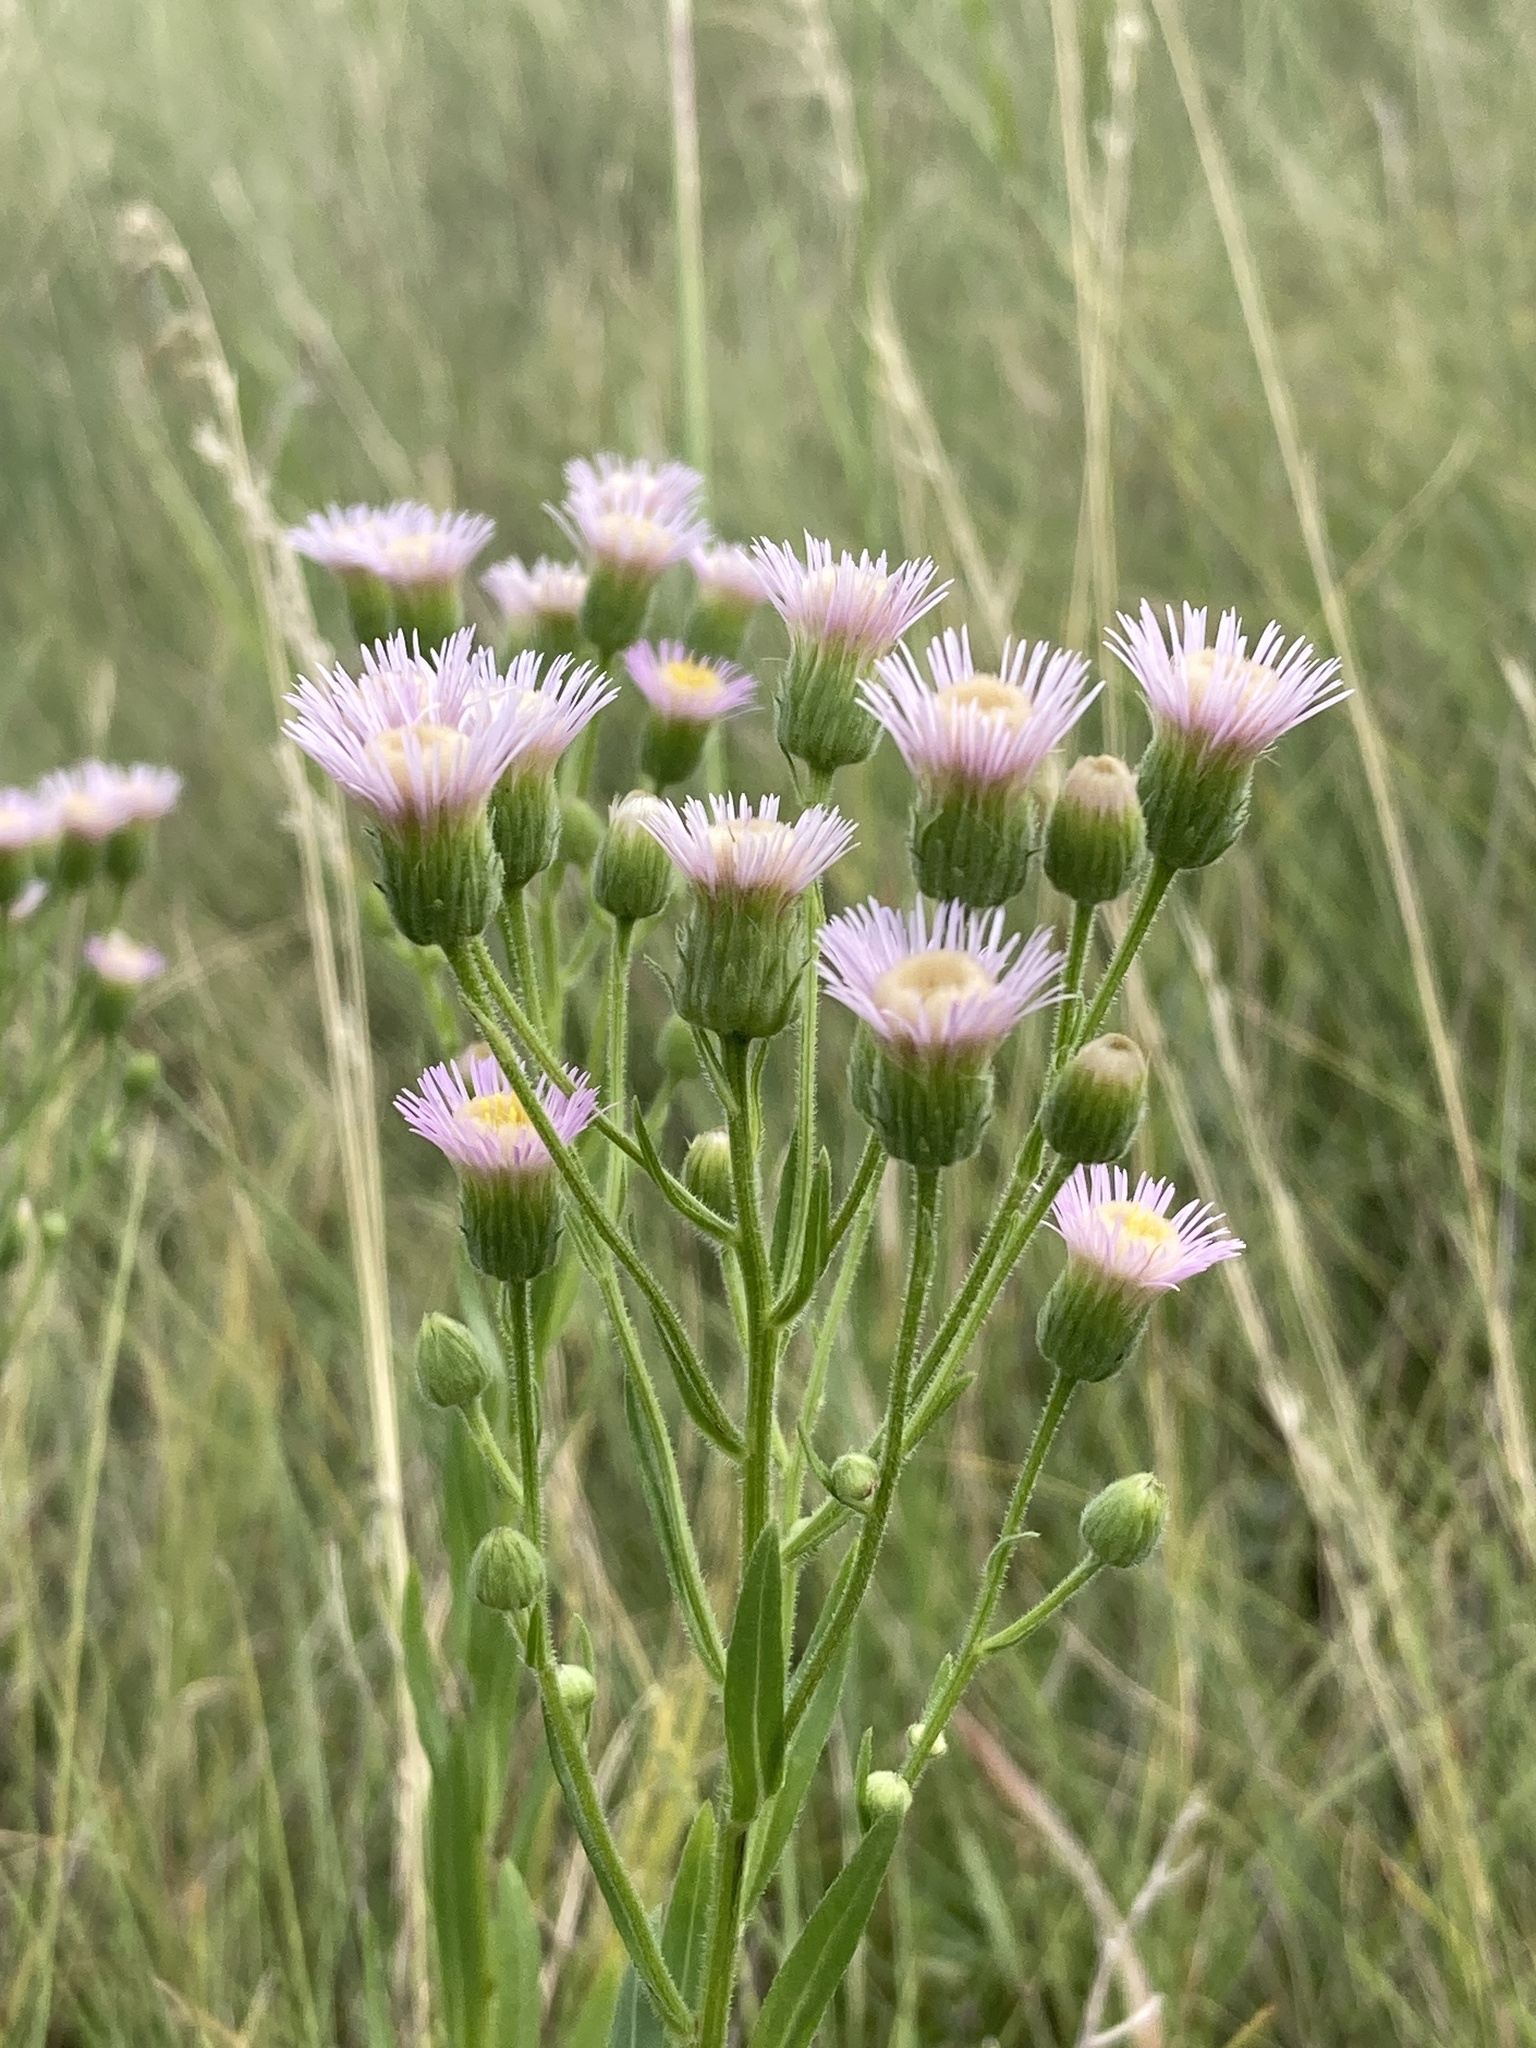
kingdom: Plantae
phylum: Tracheophyta
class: Magnoliopsida
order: Asterales
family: Asteraceae
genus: Erigeron
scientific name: Erigeron acris
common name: Blue fleabane
